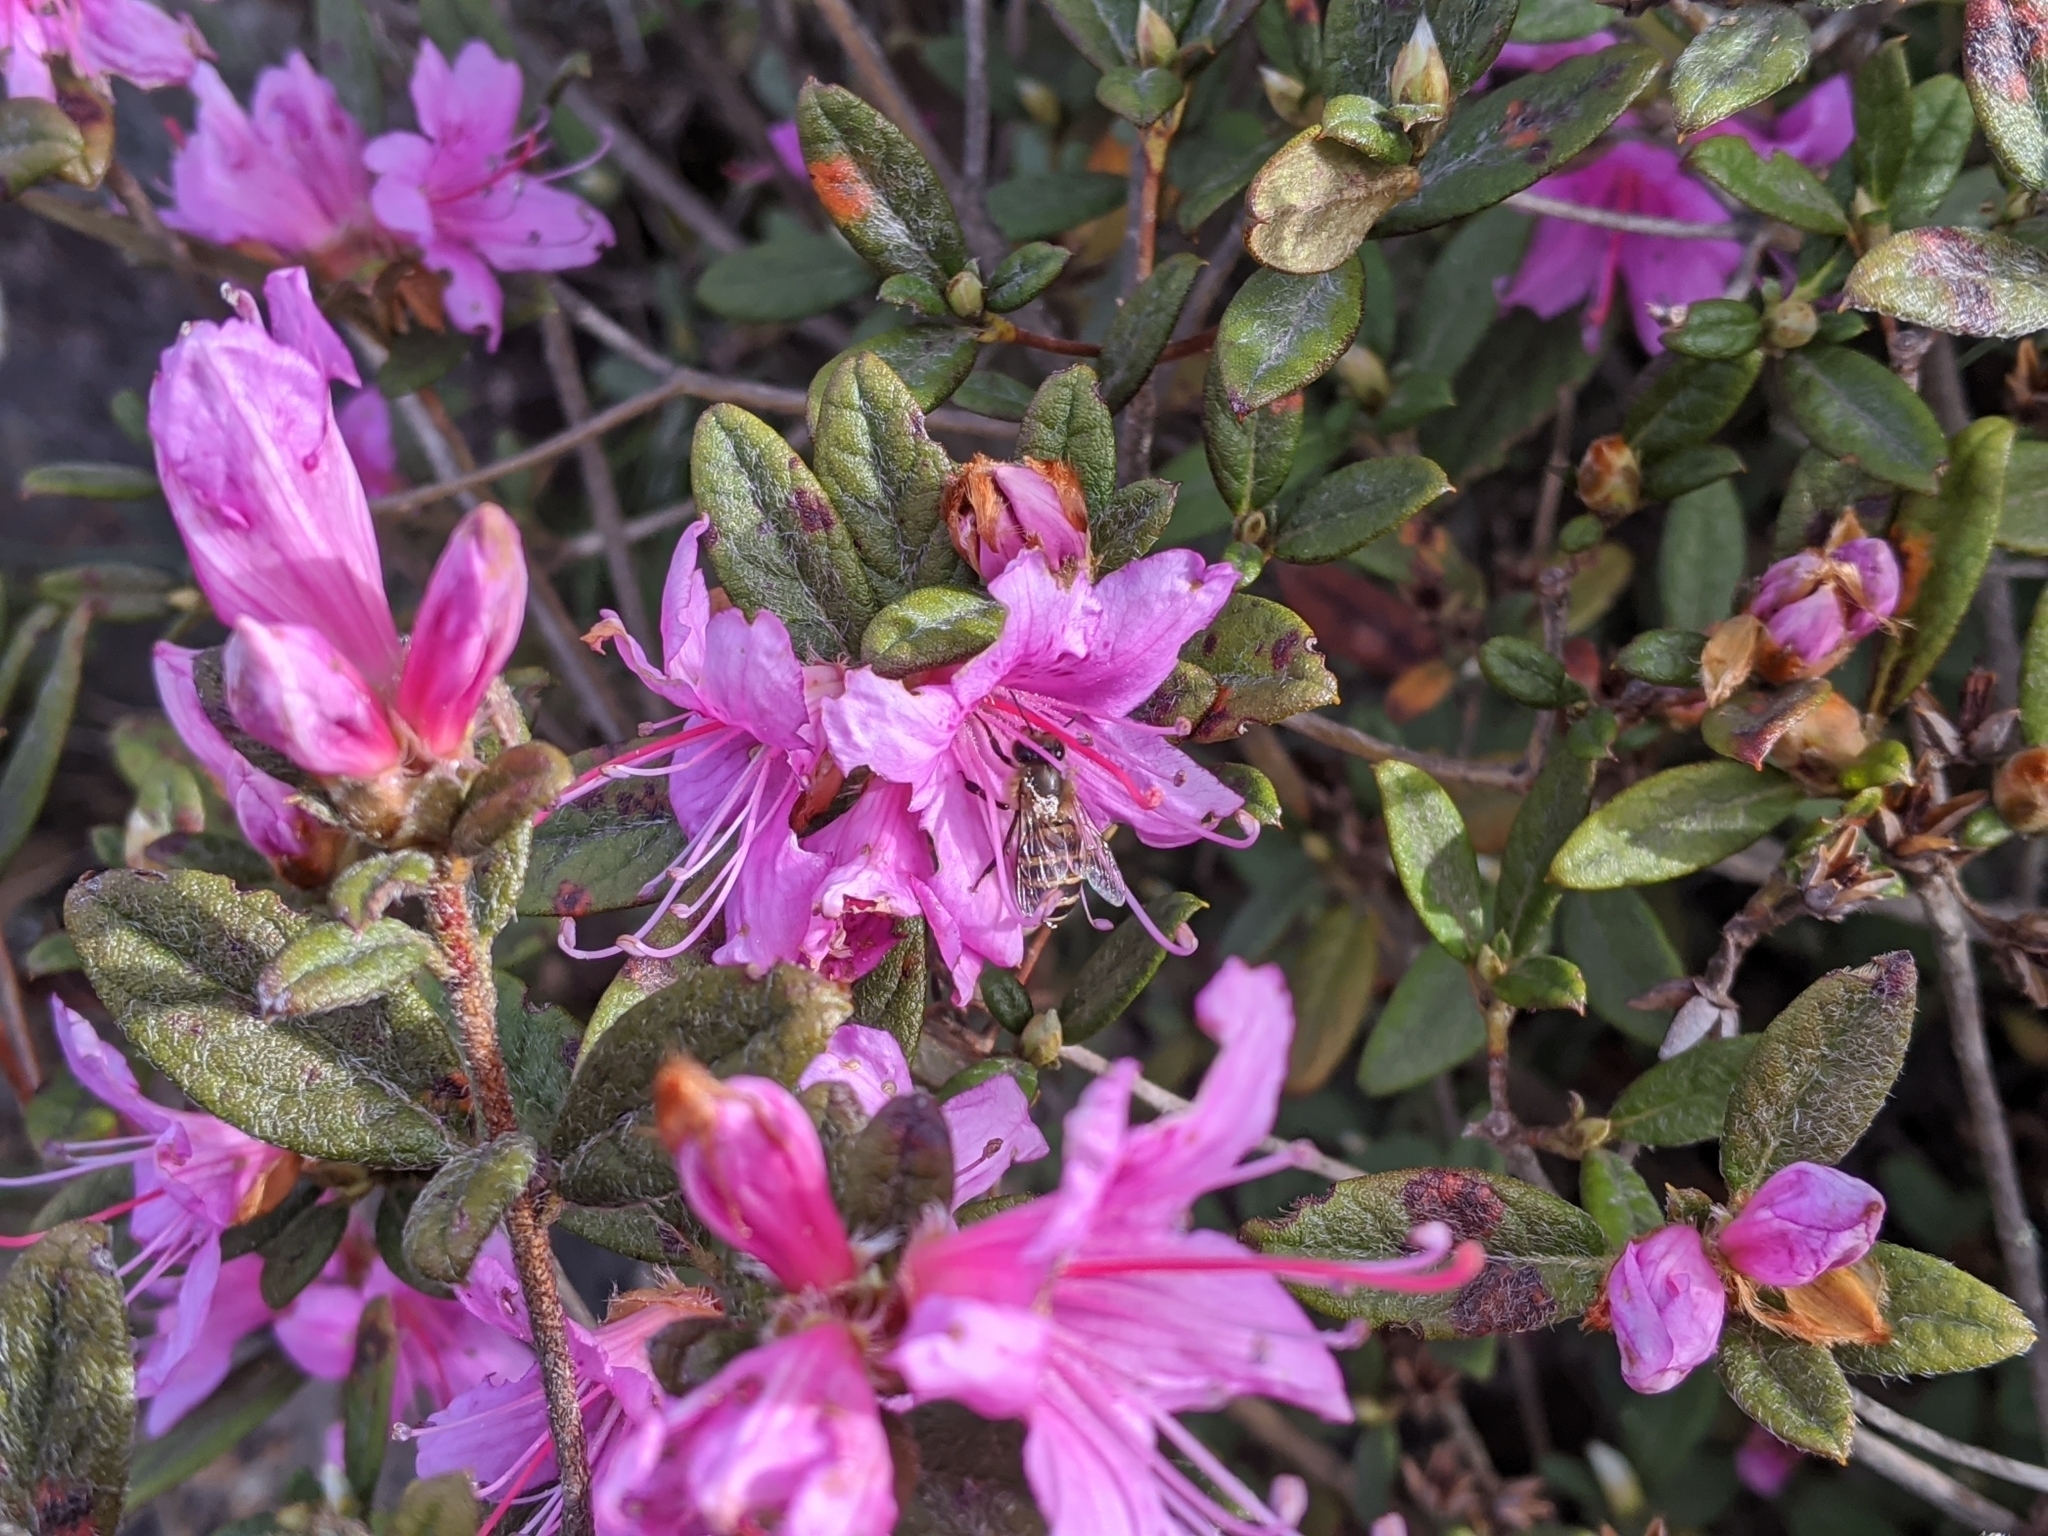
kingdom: Plantae
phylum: Tracheophyta
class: Magnoliopsida
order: Ericales
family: Ericaceae
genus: Rhododendron
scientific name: Rhododendron taiwanalpinum
